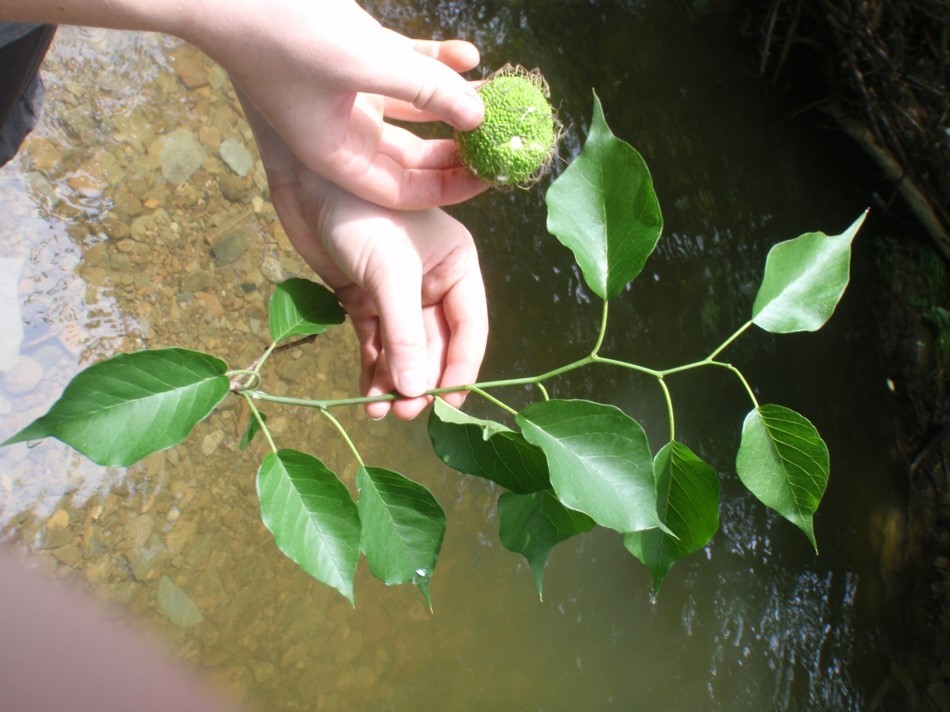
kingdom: Plantae
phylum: Tracheophyta
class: Magnoliopsida
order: Rosales
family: Moraceae
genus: Maclura
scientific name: Maclura pomifera
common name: Osage-orange
